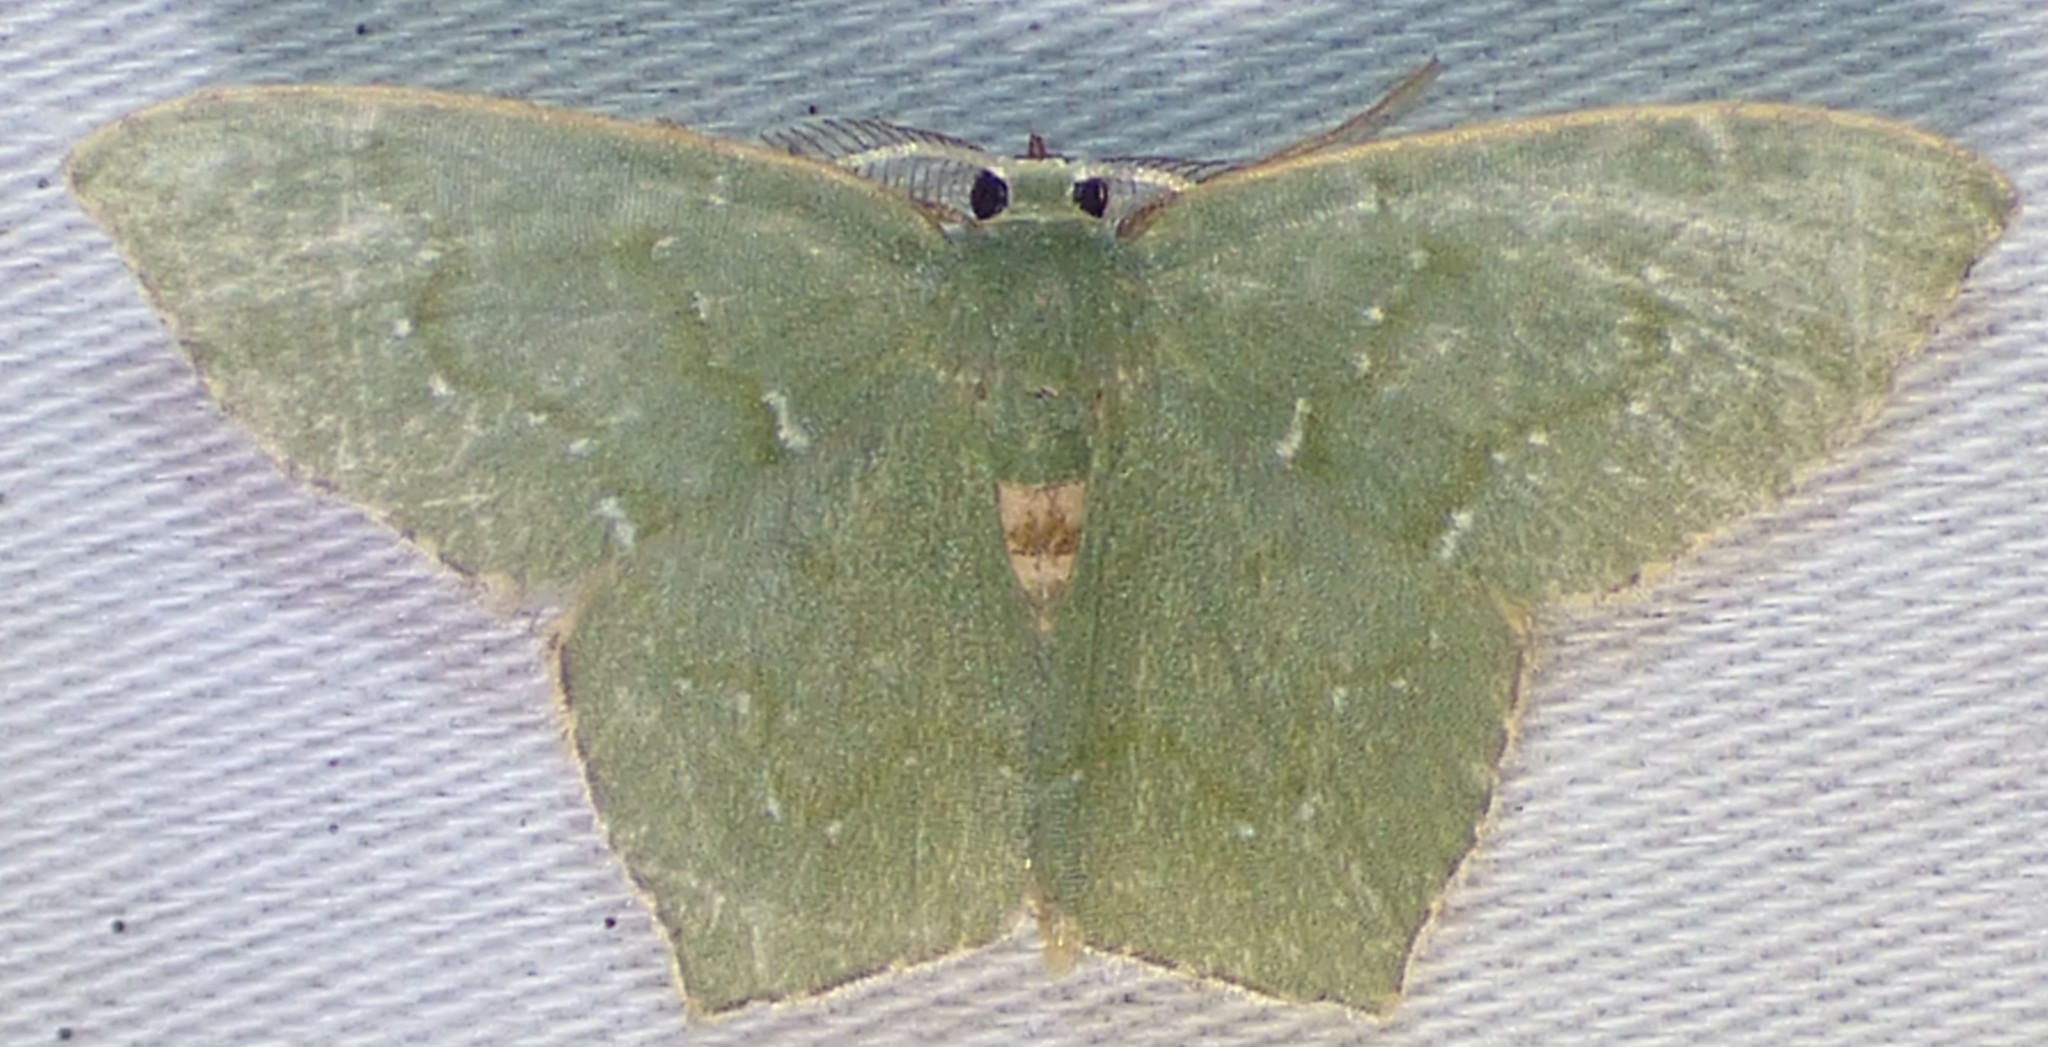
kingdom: Animalia
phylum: Arthropoda
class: Insecta
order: Lepidoptera
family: Geometridae
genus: Chloropteryx
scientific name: Chloropteryx tepperaria
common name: Angle winged emerald moth
